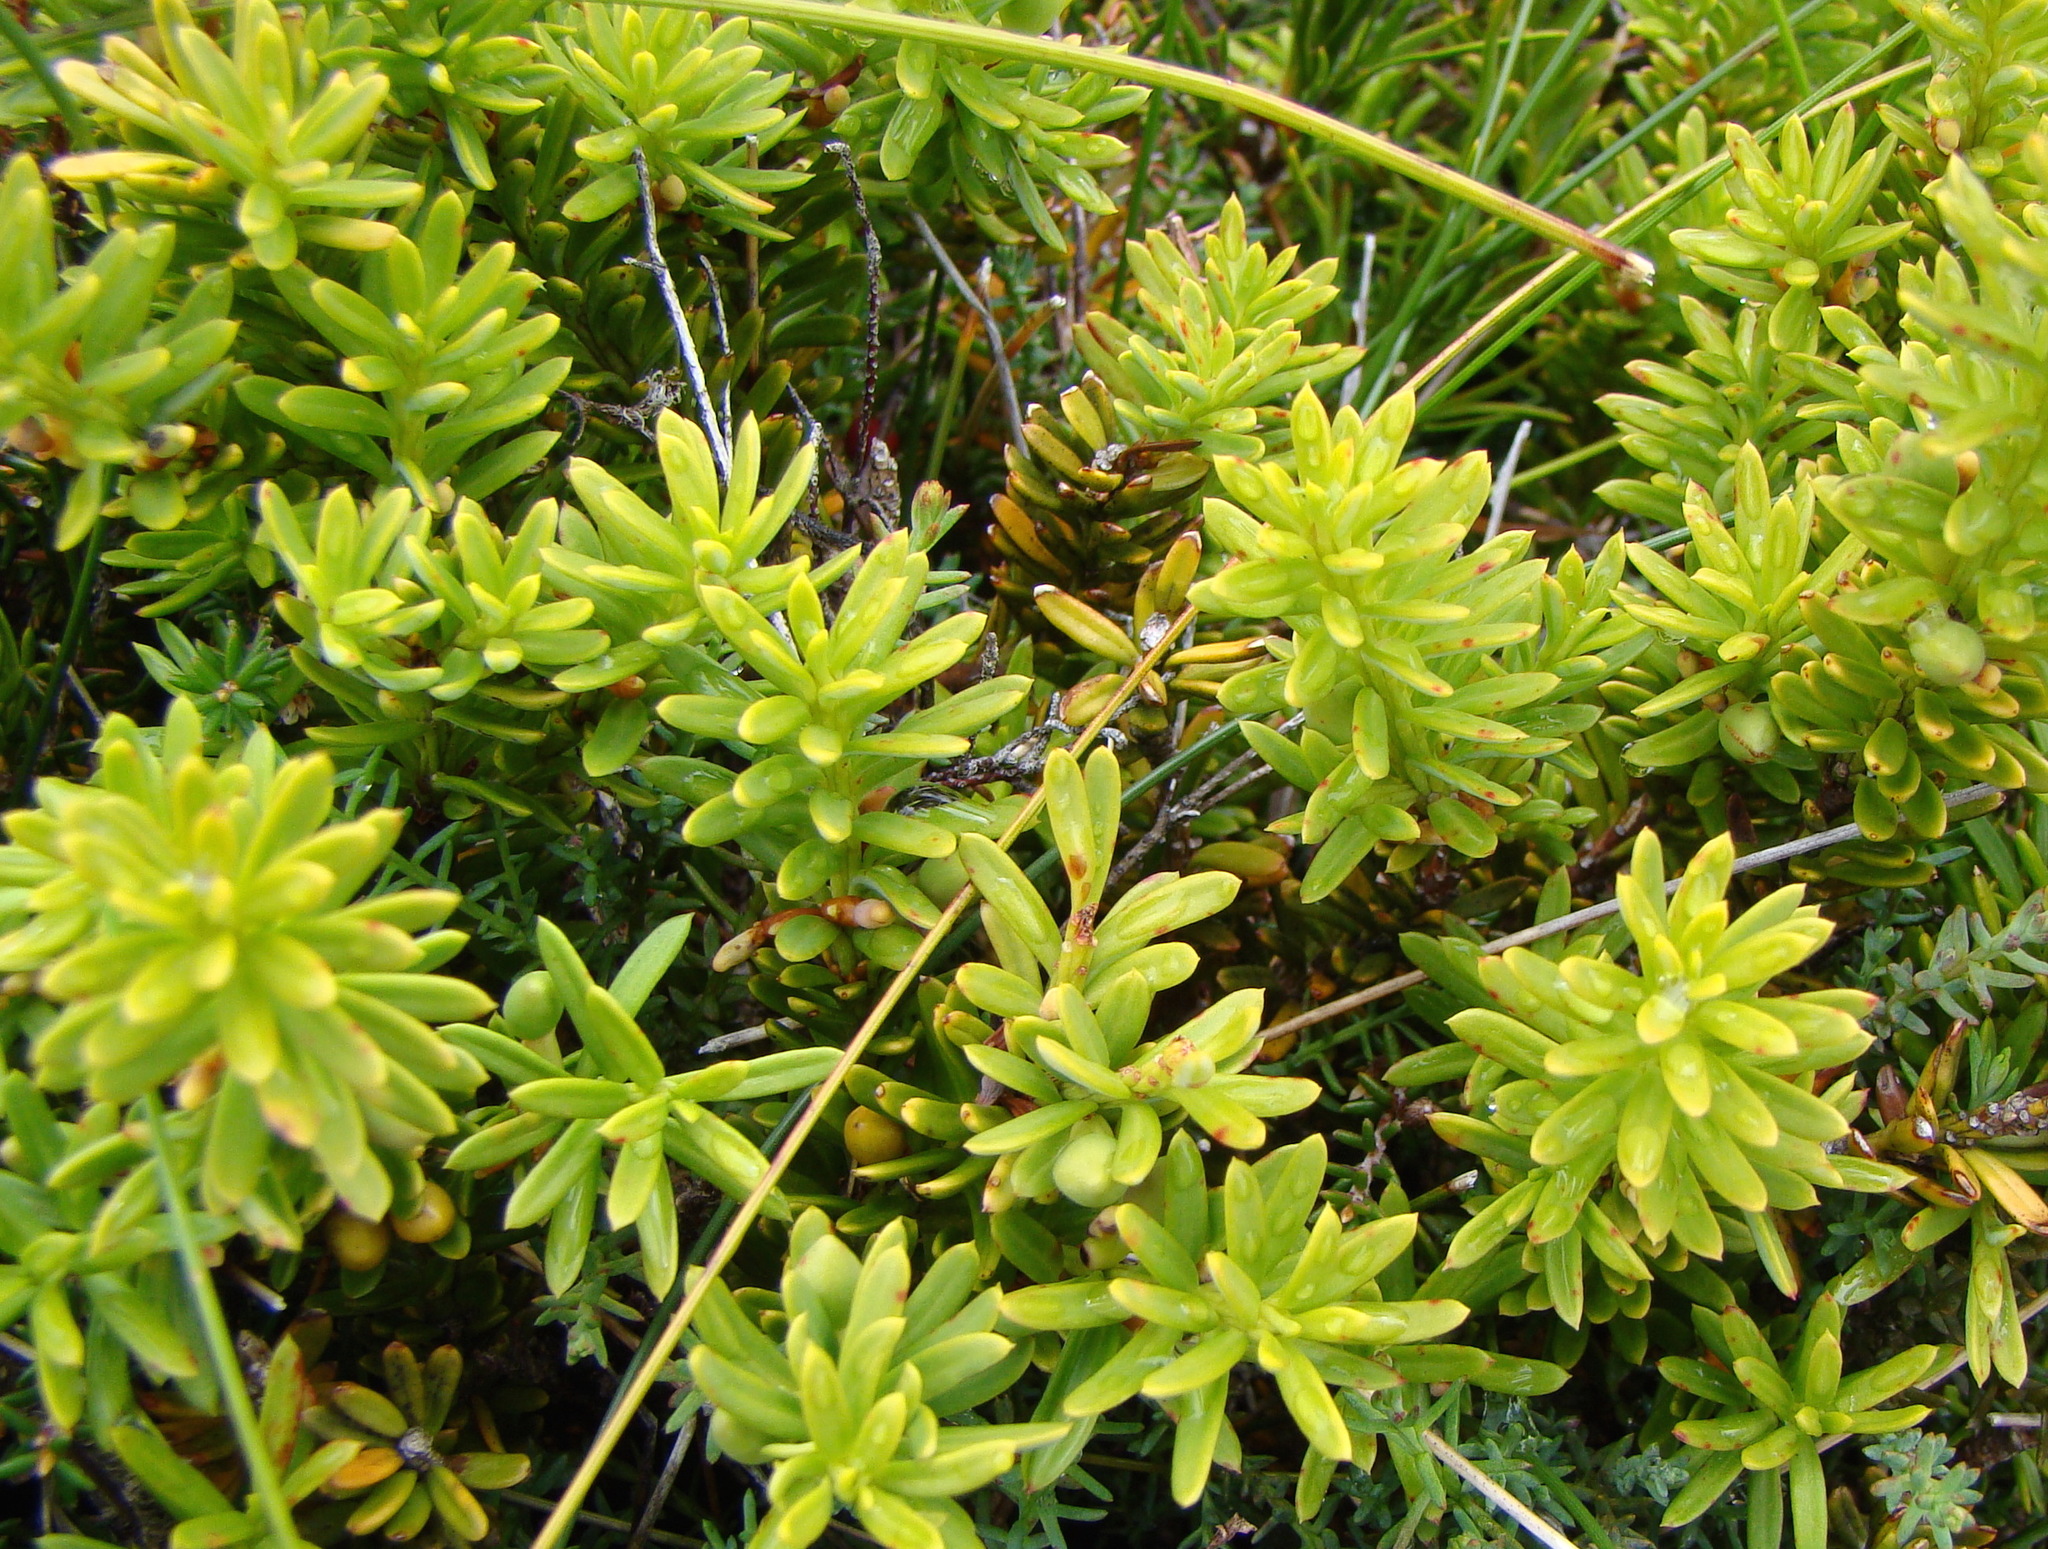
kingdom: Plantae
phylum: Tracheophyta
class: Pinopsida
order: Pinales
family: Podocarpaceae
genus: Podocarpus
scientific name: Podocarpus nivalis
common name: Alpine totara
